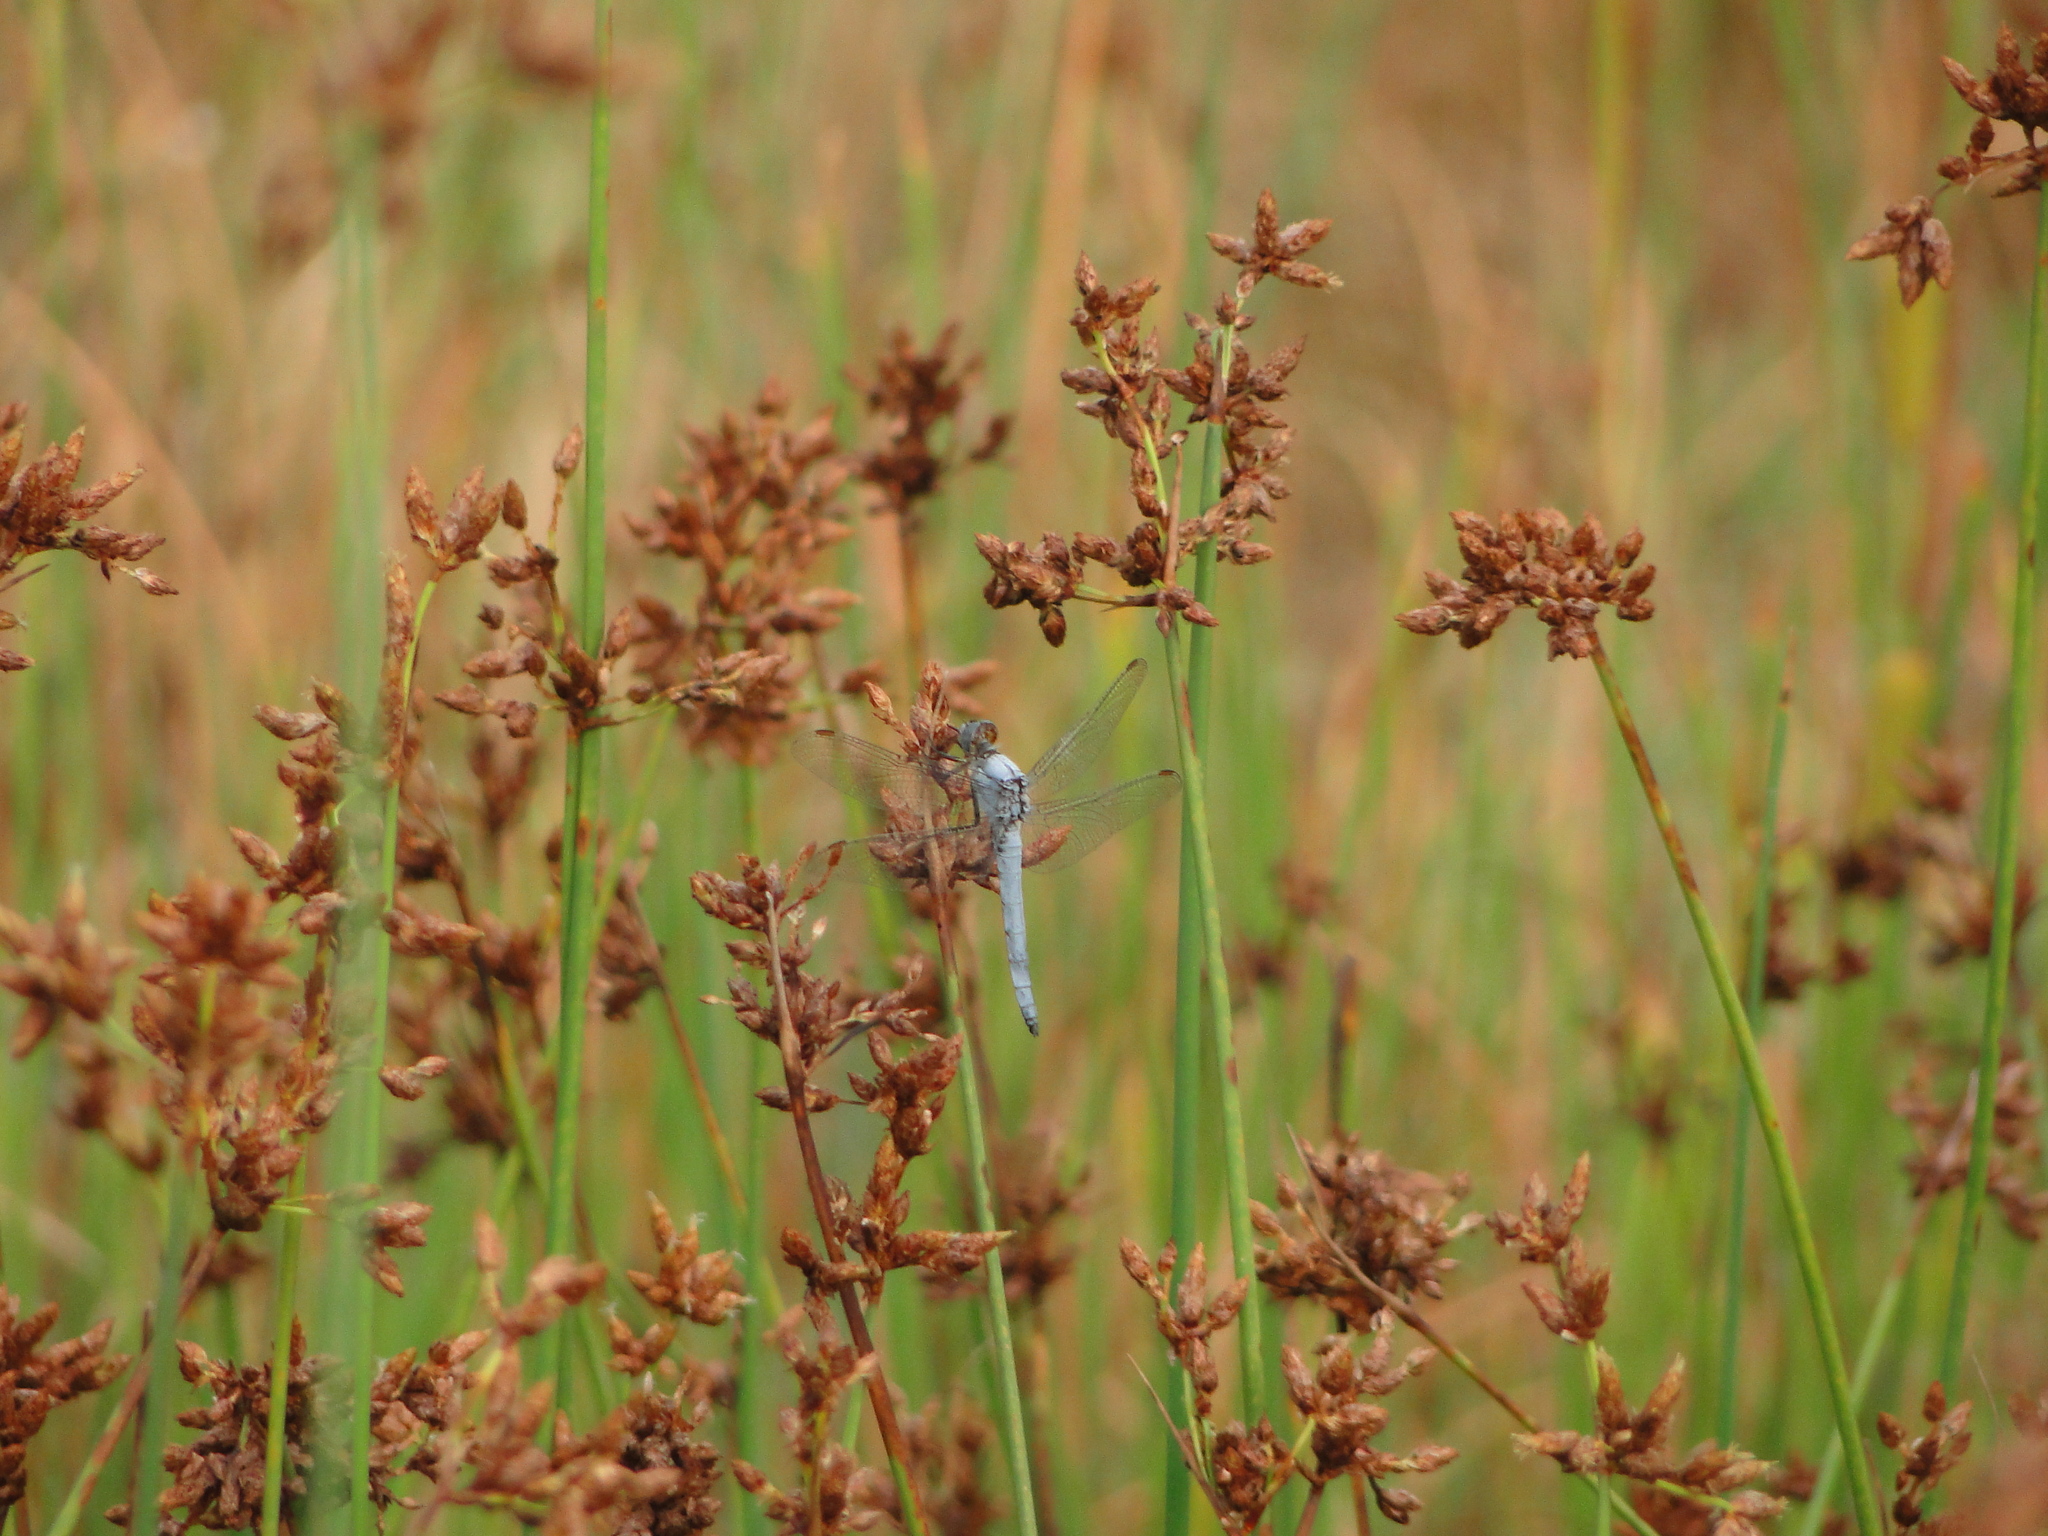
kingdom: Animalia
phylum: Arthropoda
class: Insecta
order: Odonata
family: Libellulidae
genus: Orthetrum
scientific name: Orthetrum brunneum
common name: Southern skimmer
